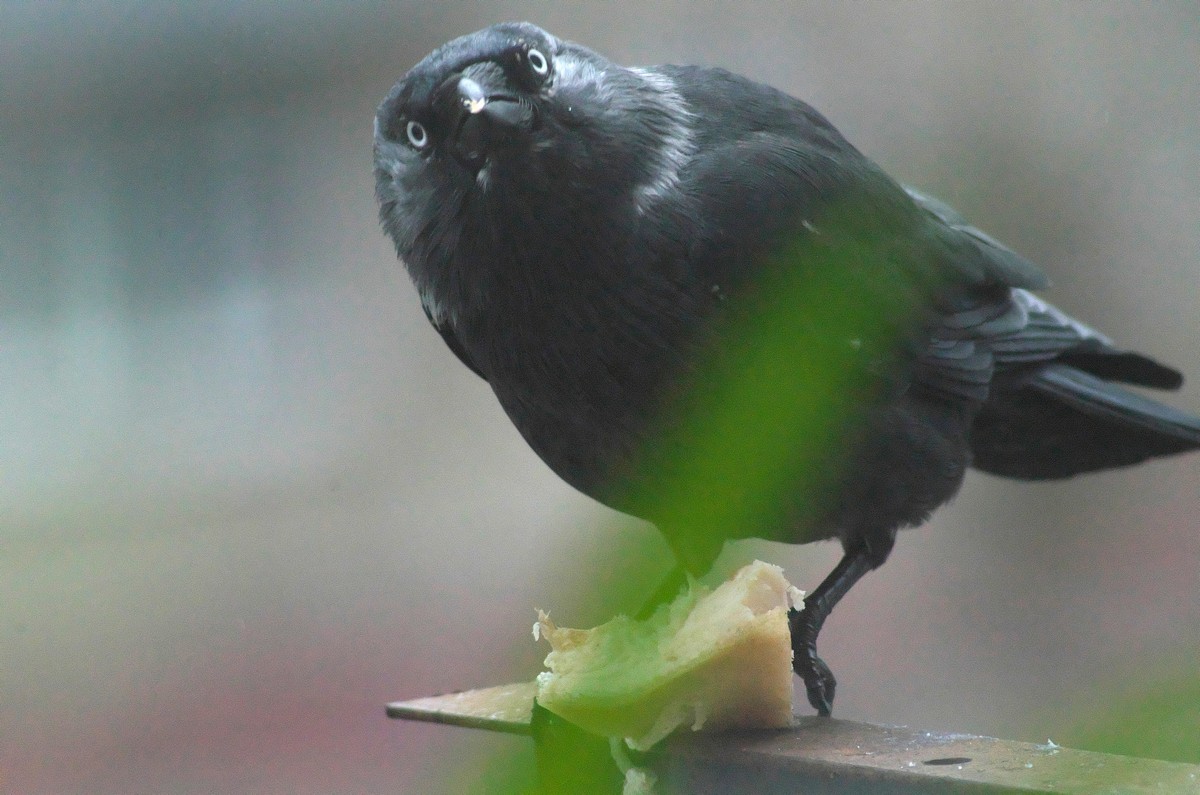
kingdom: Animalia
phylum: Chordata
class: Aves
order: Passeriformes
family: Corvidae
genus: Coloeus
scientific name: Coloeus monedula
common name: Western jackdaw
